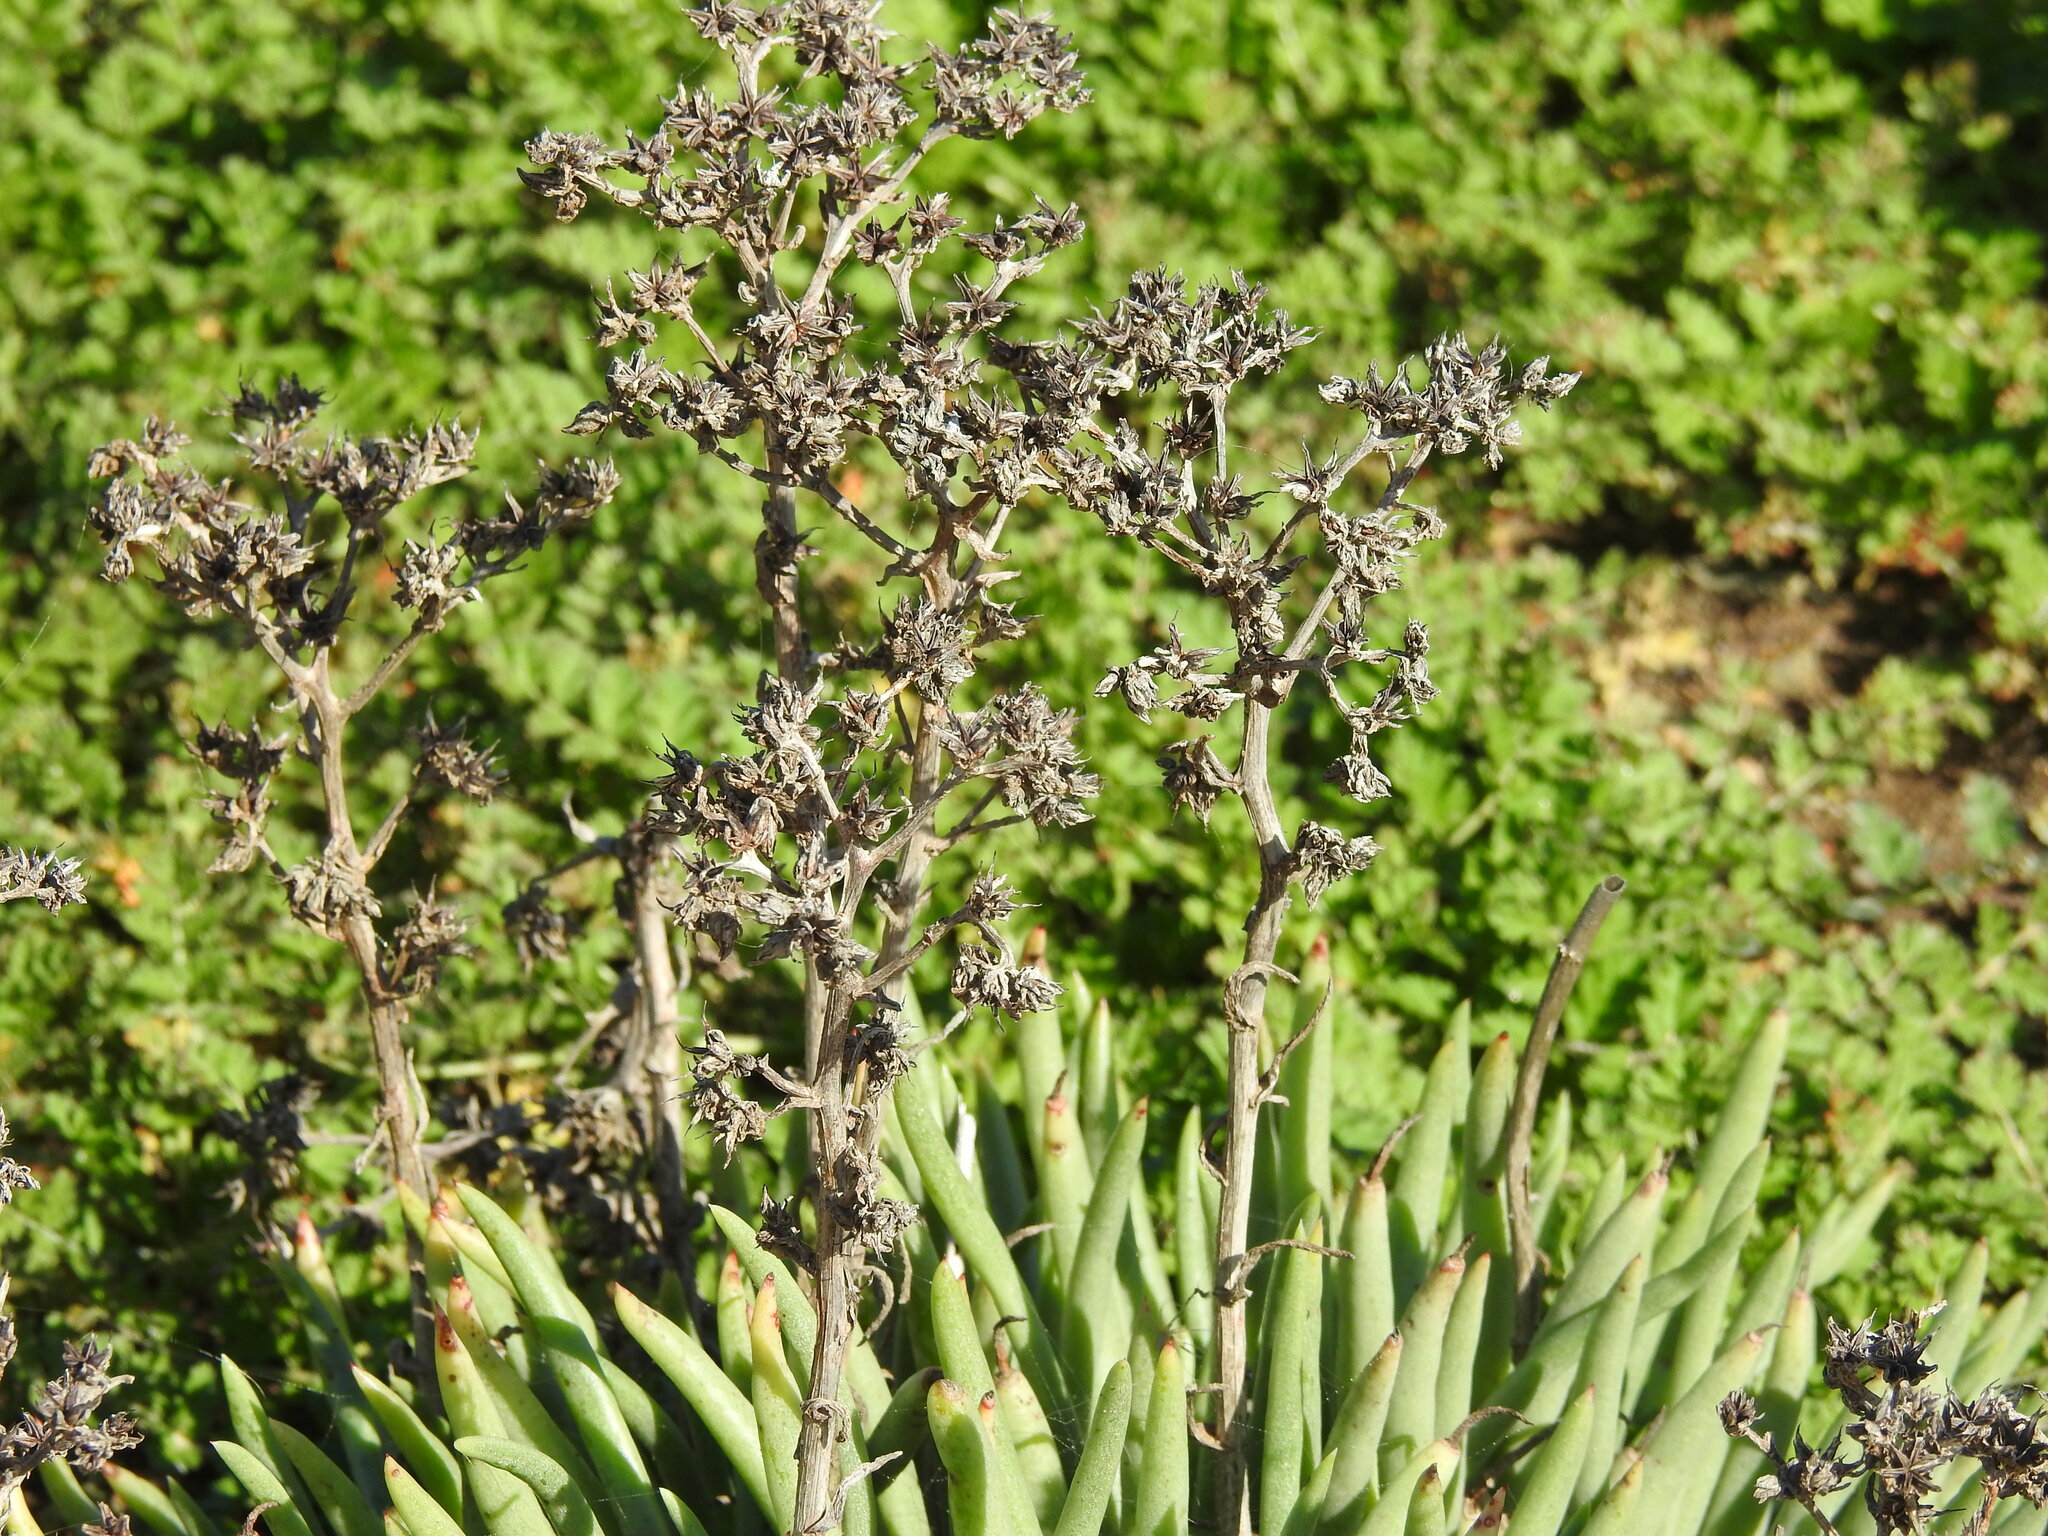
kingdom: Plantae
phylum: Tracheophyta
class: Magnoliopsida
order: Saxifragales
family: Crassulaceae
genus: Dudleya
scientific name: Dudleya edulis
